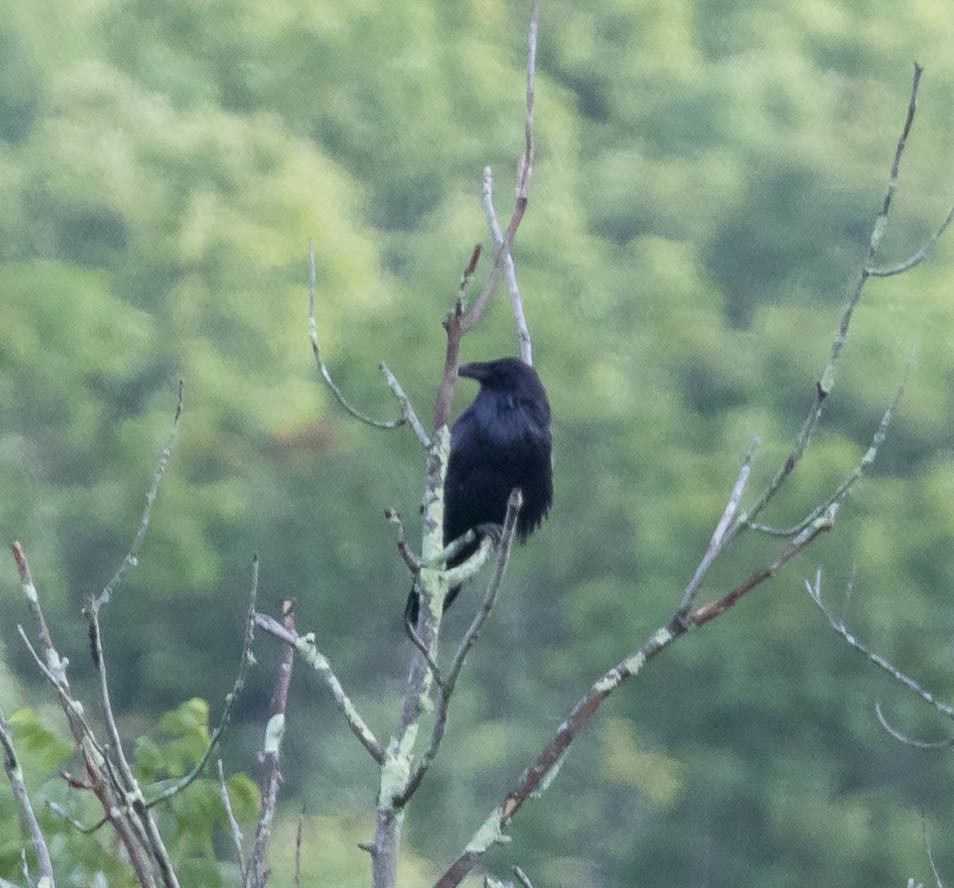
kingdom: Animalia
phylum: Chordata
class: Aves
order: Passeriformes
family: Corvidae
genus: Corvus
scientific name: Corvus corax
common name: Common raven
